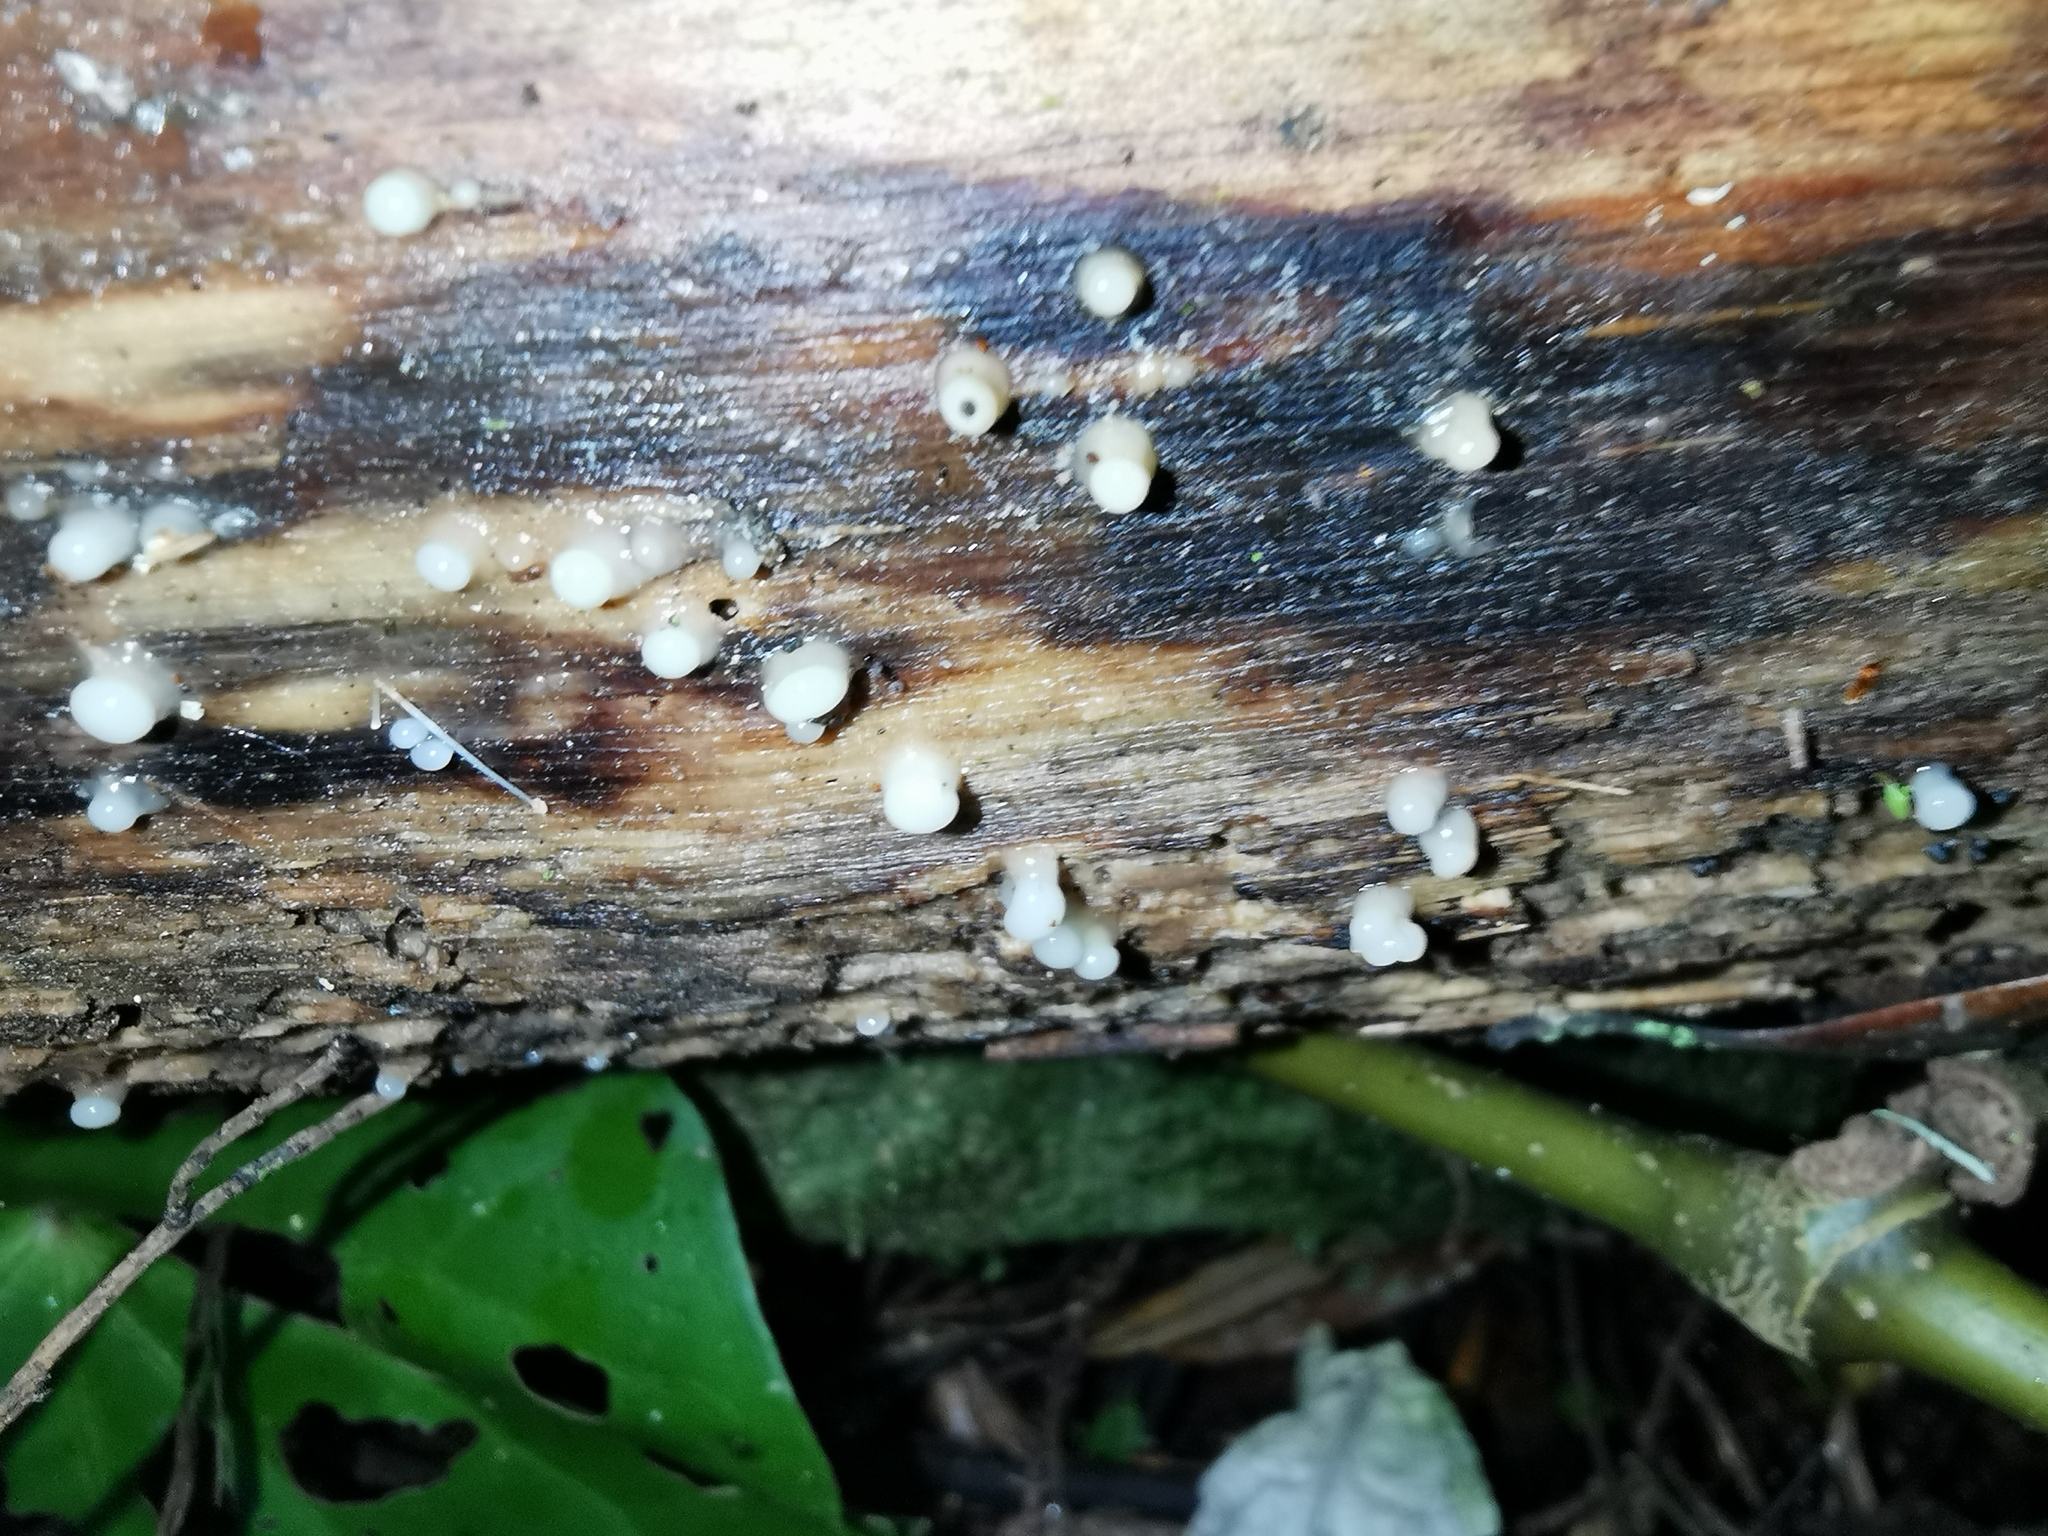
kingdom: Fungi
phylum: Basidiomycota
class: Atractiellomycetes
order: Atractiellales
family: Phleogenaceae
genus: Helicogloea
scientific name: Helicogloea compressa
